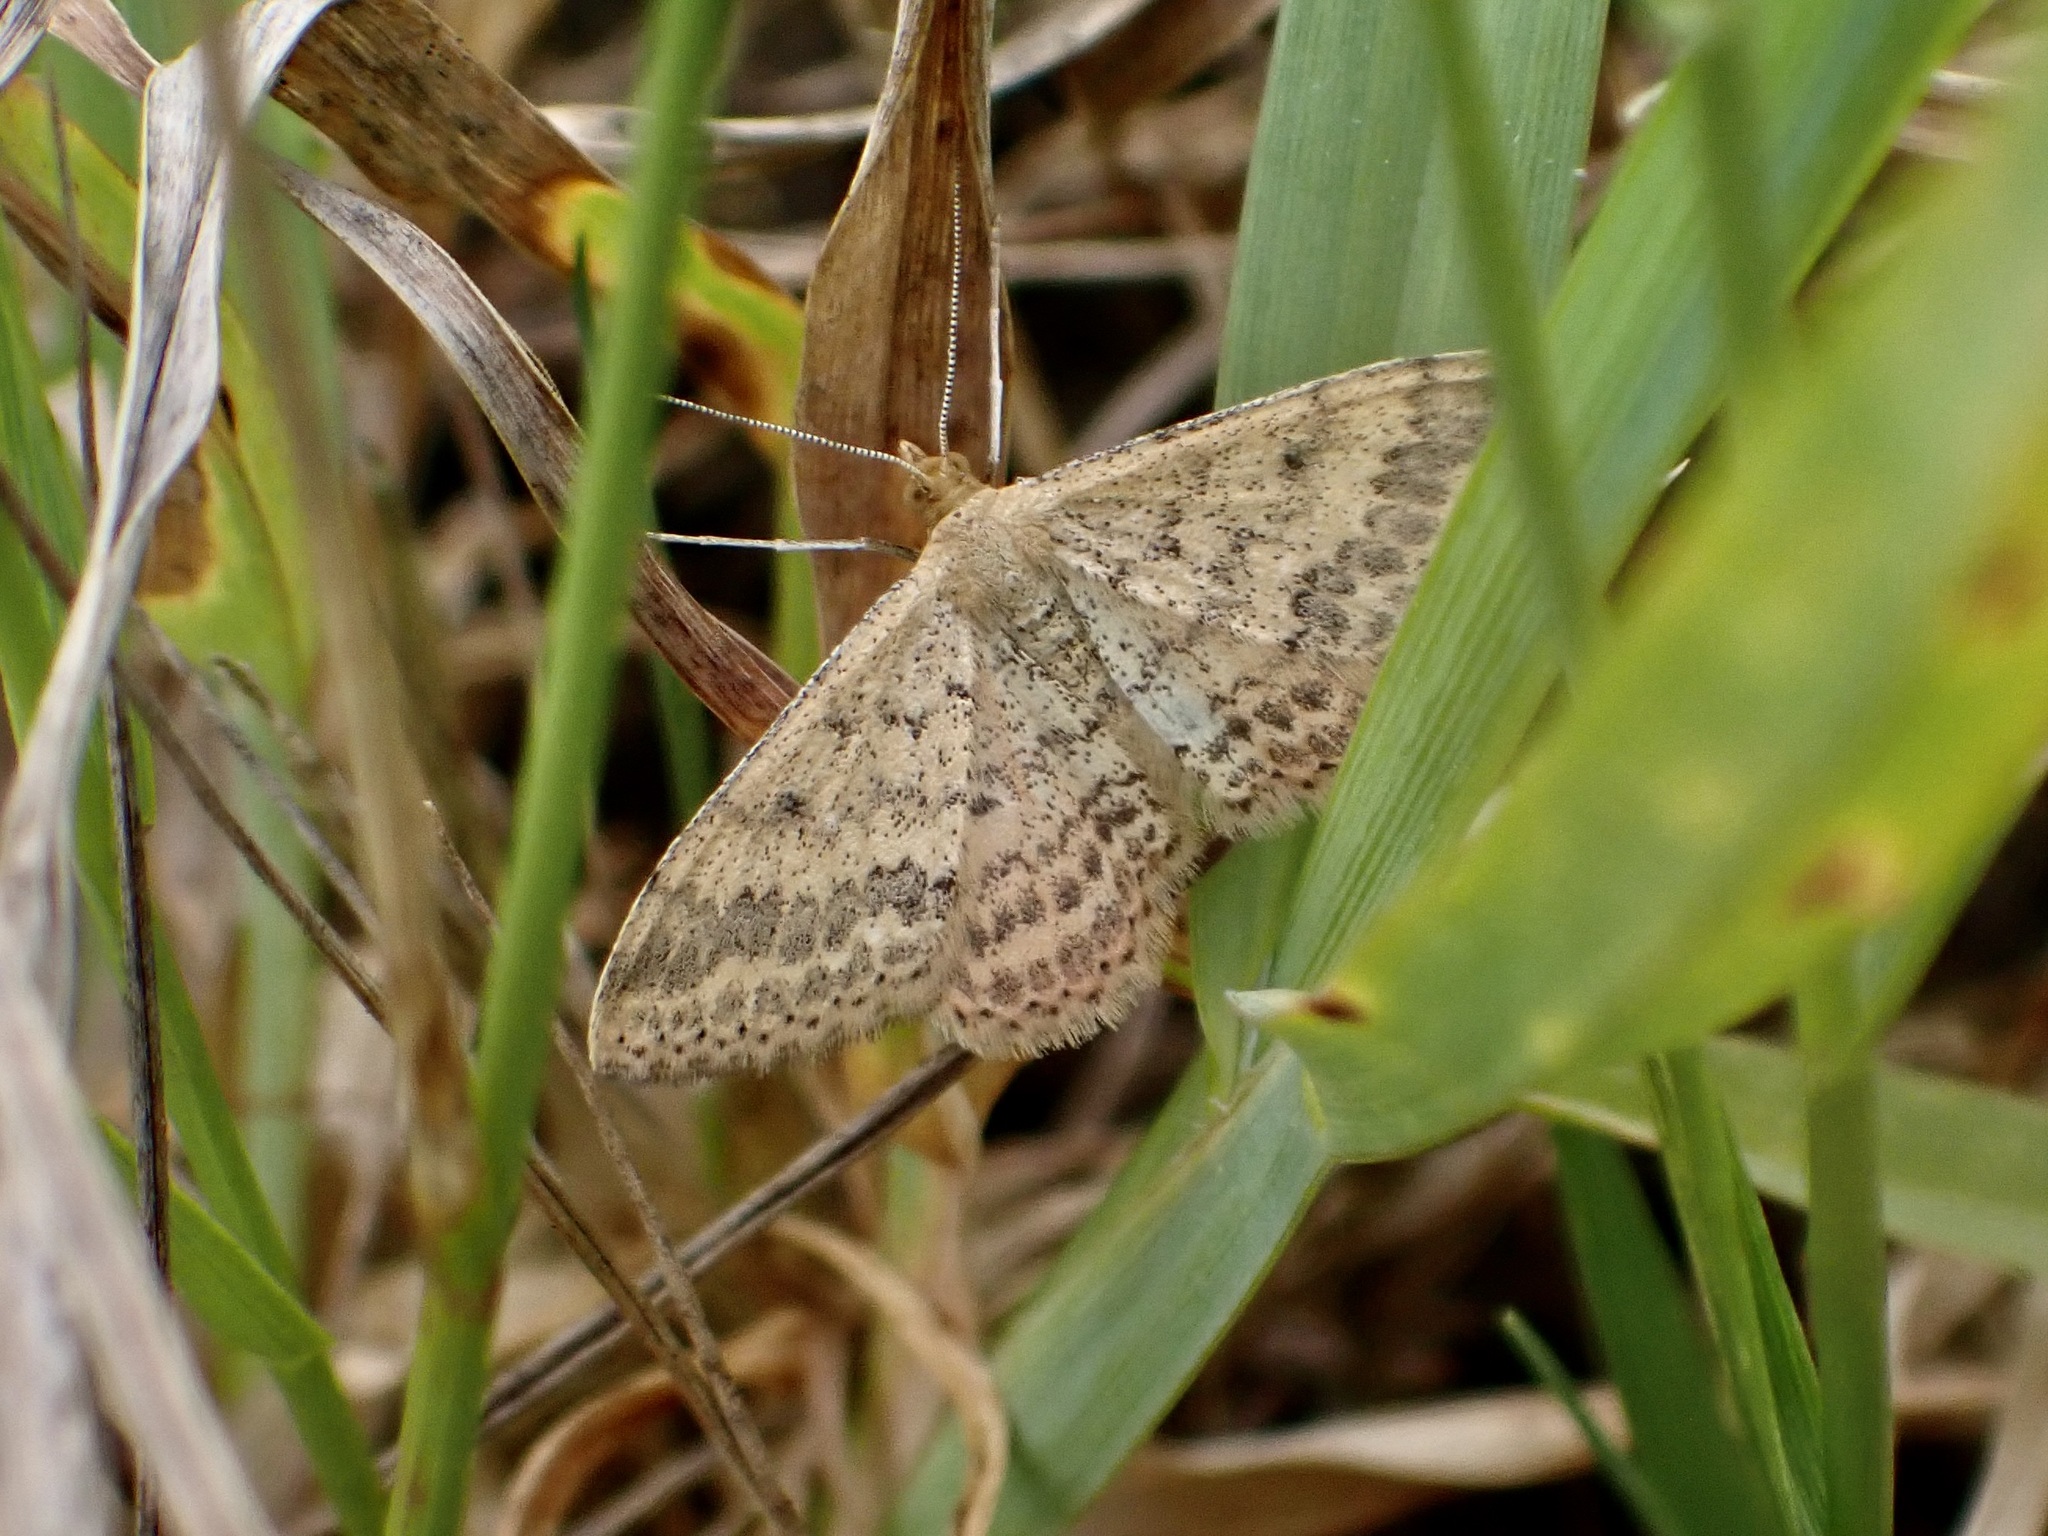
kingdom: Animalia
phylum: Arthropoda
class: Insecta
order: Lepidoptera
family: Geometridae
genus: Scopula
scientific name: Scopula rubraria
